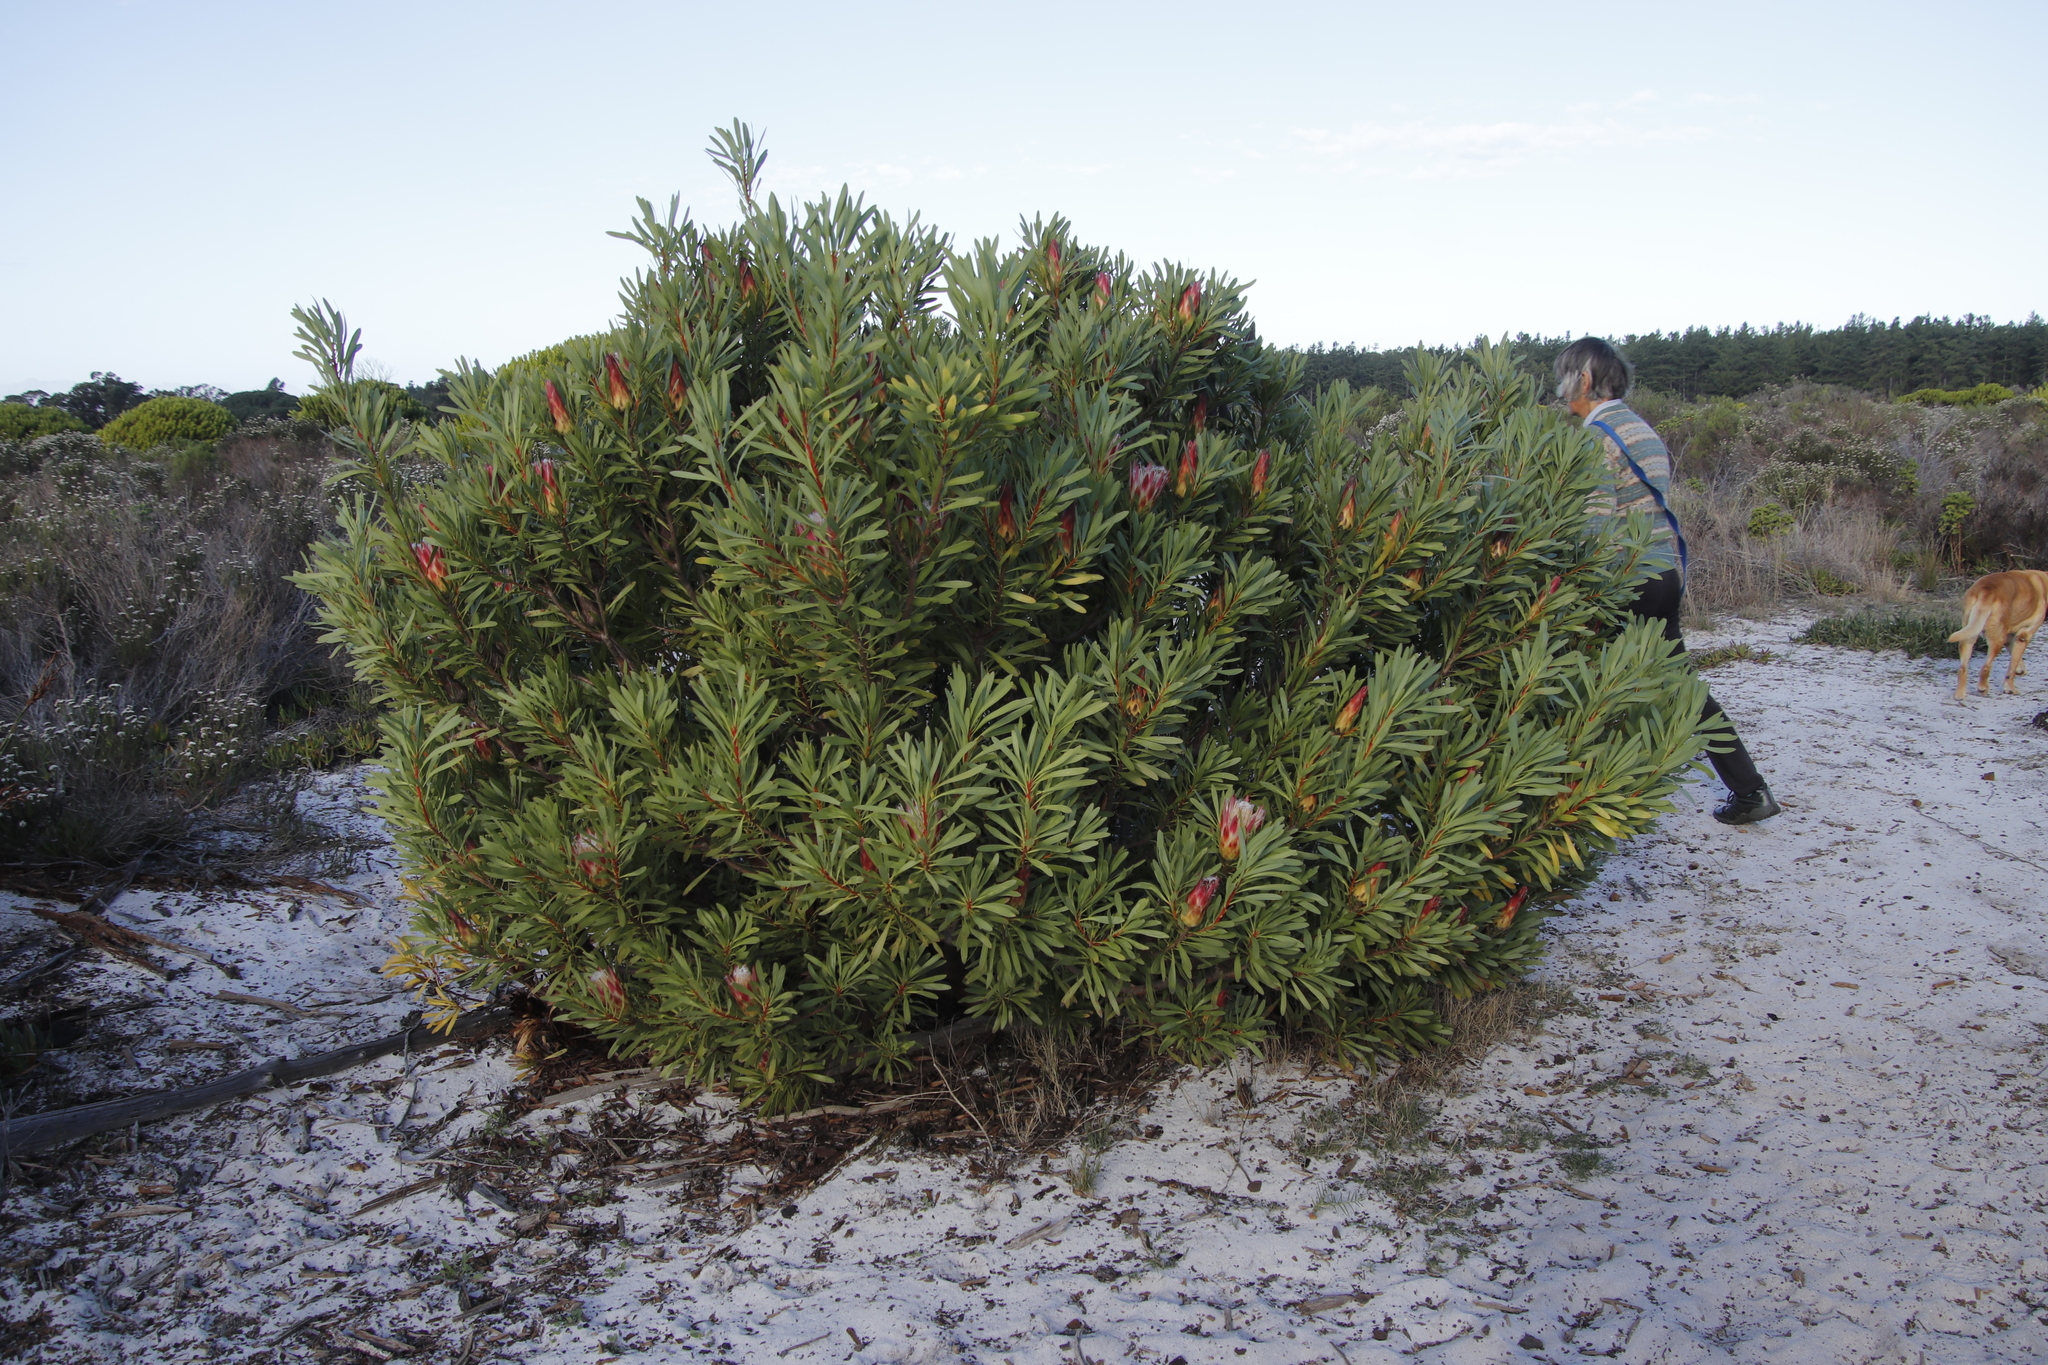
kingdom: Plantae
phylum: Tracheophyta
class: Magnoliopsida
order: Proteales
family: Proteaceae
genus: Protea
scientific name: Protea repens
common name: Sugarbush
